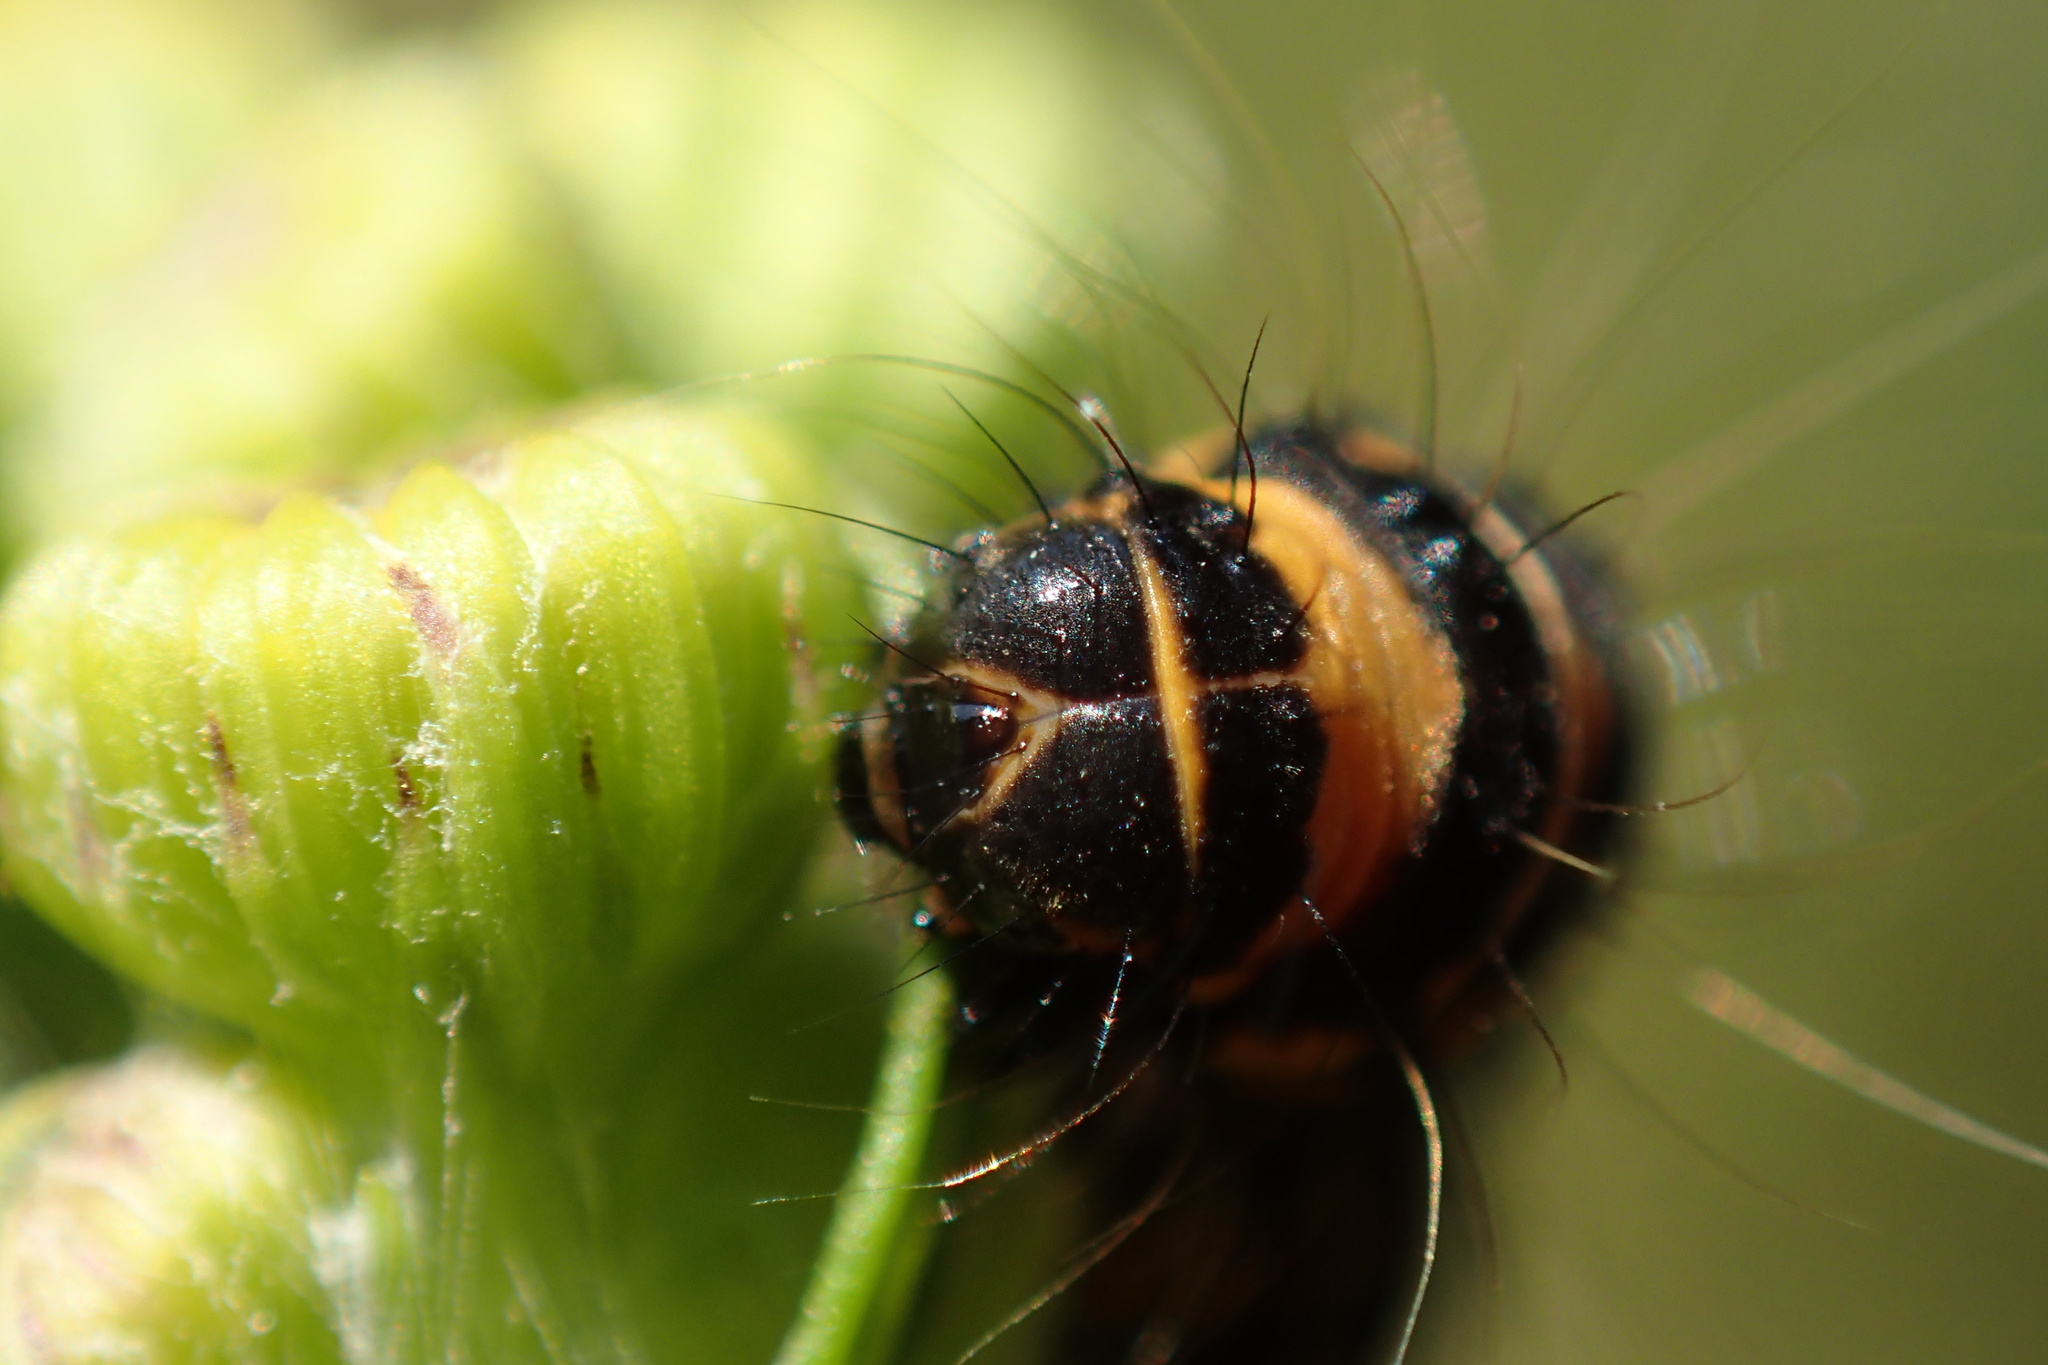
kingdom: Animalia
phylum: Arthropoda
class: Insecta
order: Lepidoptera
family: Erebidae
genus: Tyria
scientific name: Tyria jacobaeae
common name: Cinnabar
